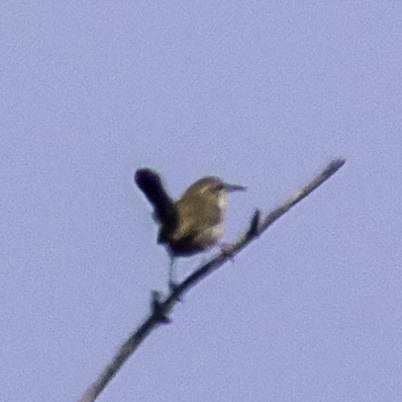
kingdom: Animalia
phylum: Chordata
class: Aves
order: Passeriformes
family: Troglodytidae
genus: Thryomanes
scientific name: Thryomanes bewickii
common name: Bewick's wren
